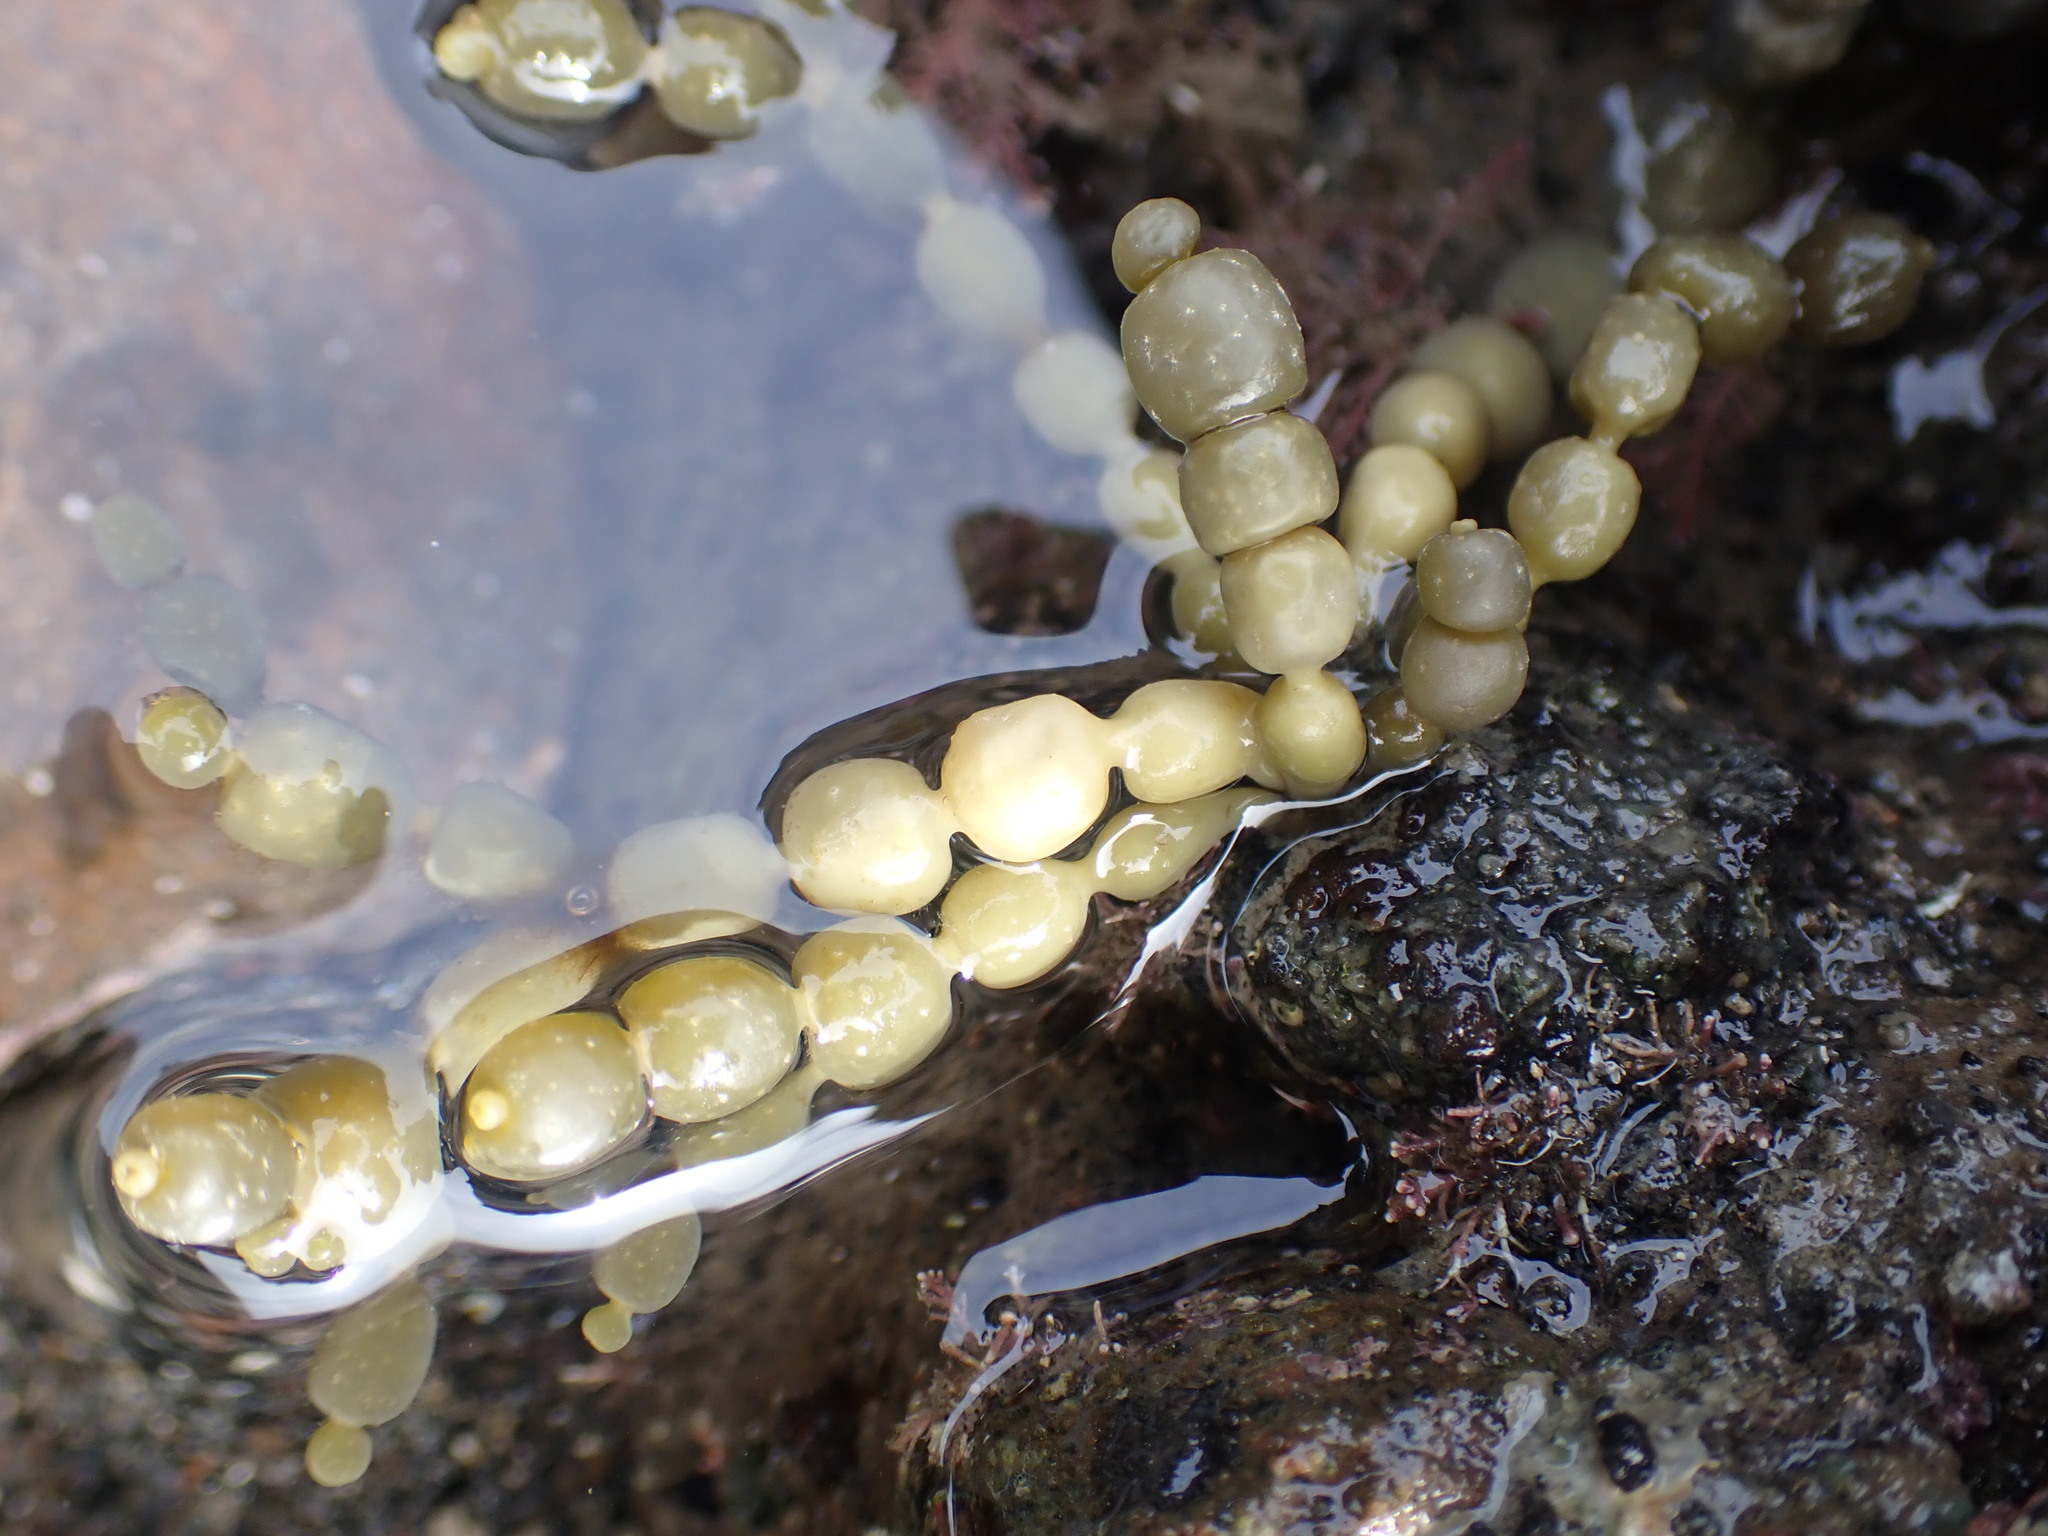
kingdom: Chromista
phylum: Ochrophyta
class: Phaeophyceae
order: Fucales
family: Hormosiraceae
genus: Hormosira
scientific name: Hormosira banksii
